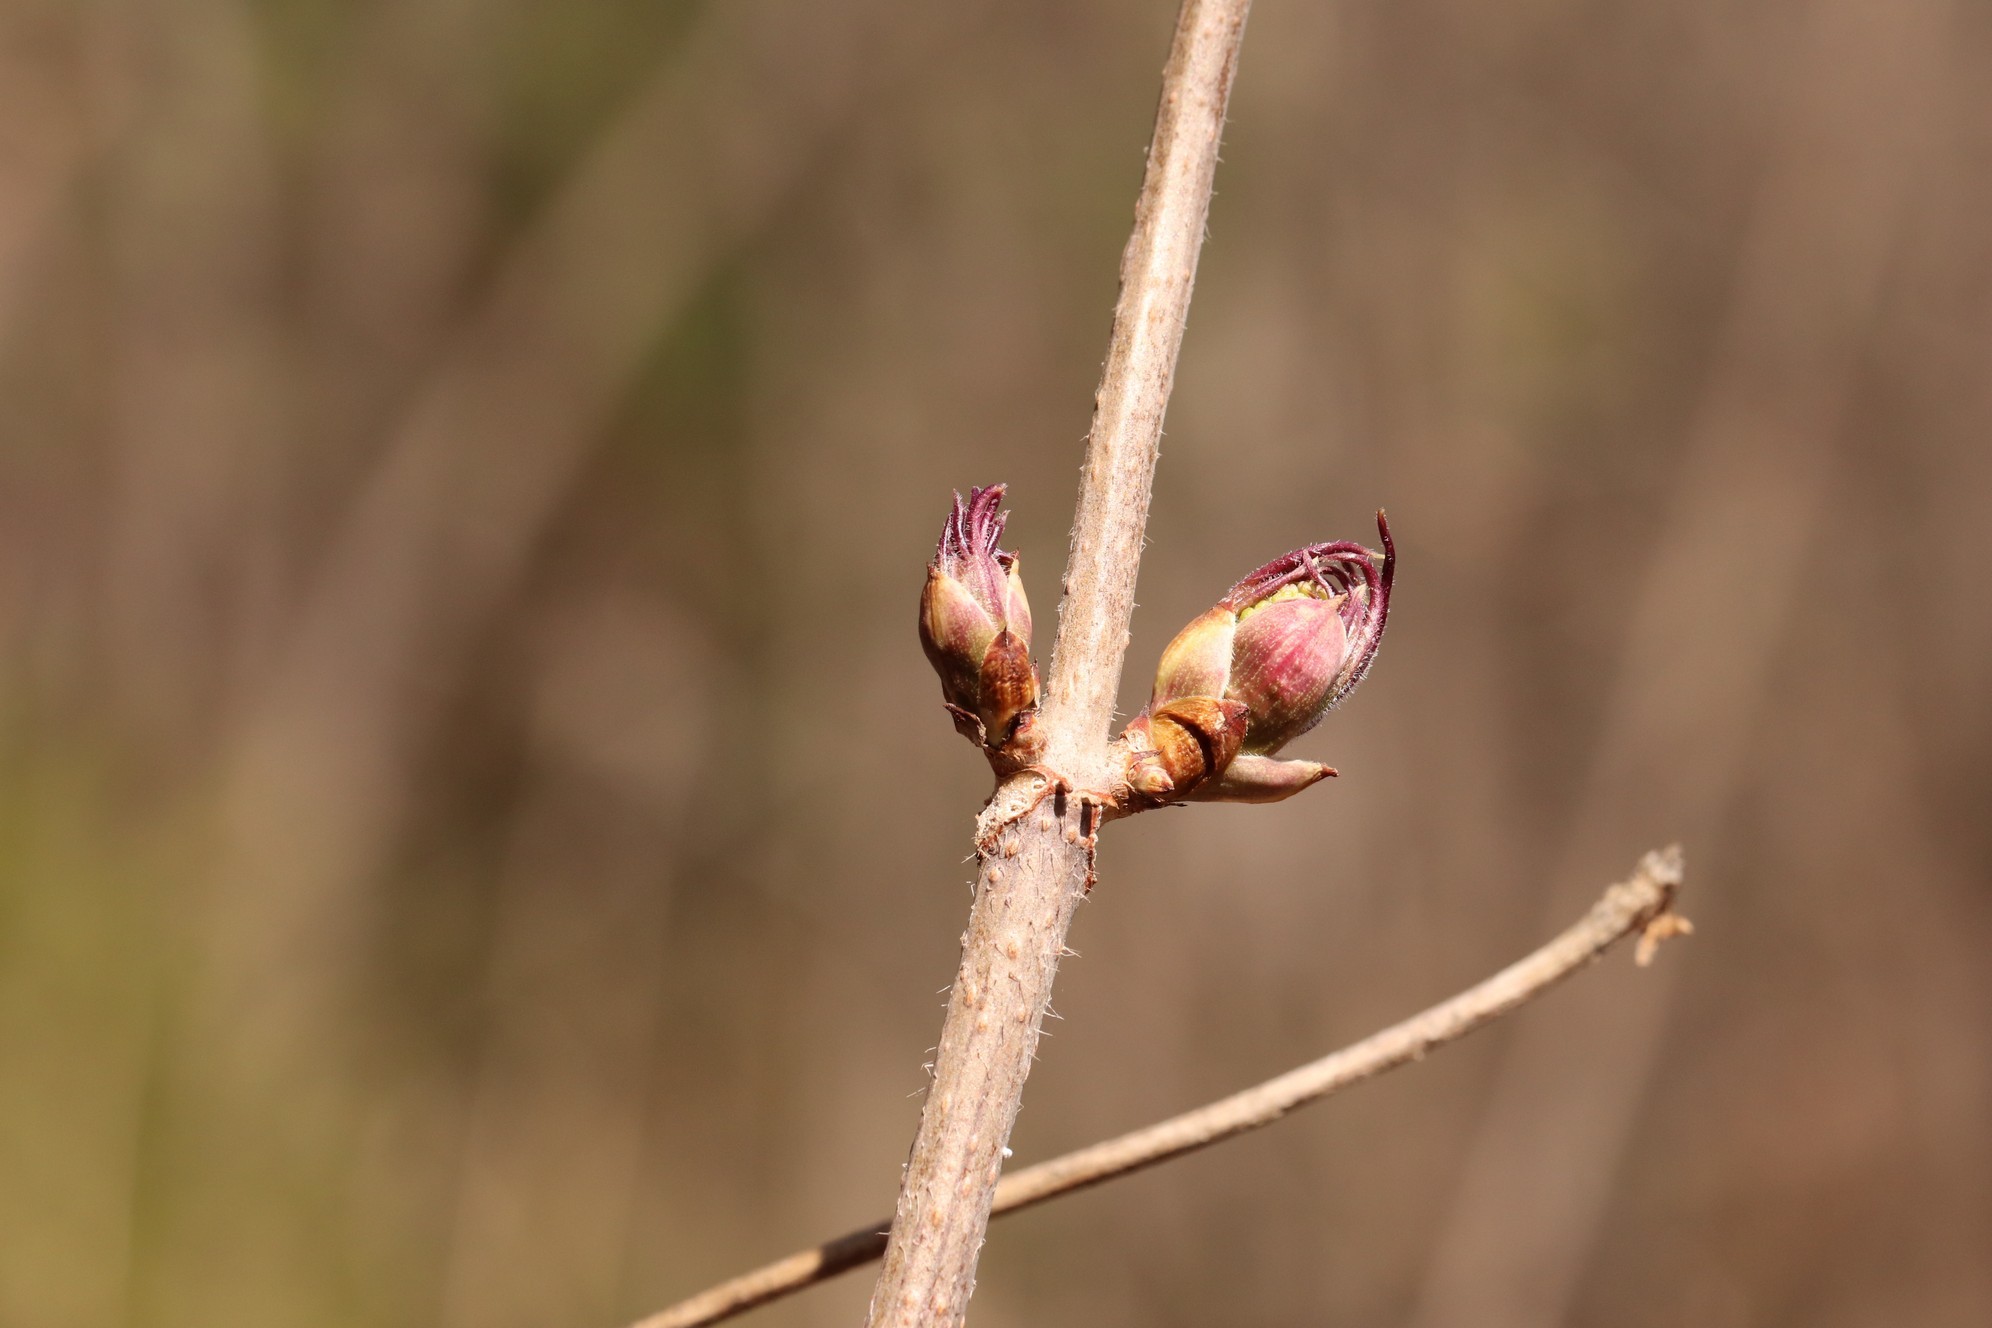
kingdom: Plantae
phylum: Tracheophyta
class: Magnoliopsida
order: Dipsacales
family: Viburnaceae
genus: Sambucus
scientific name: Sambucus sibirica
